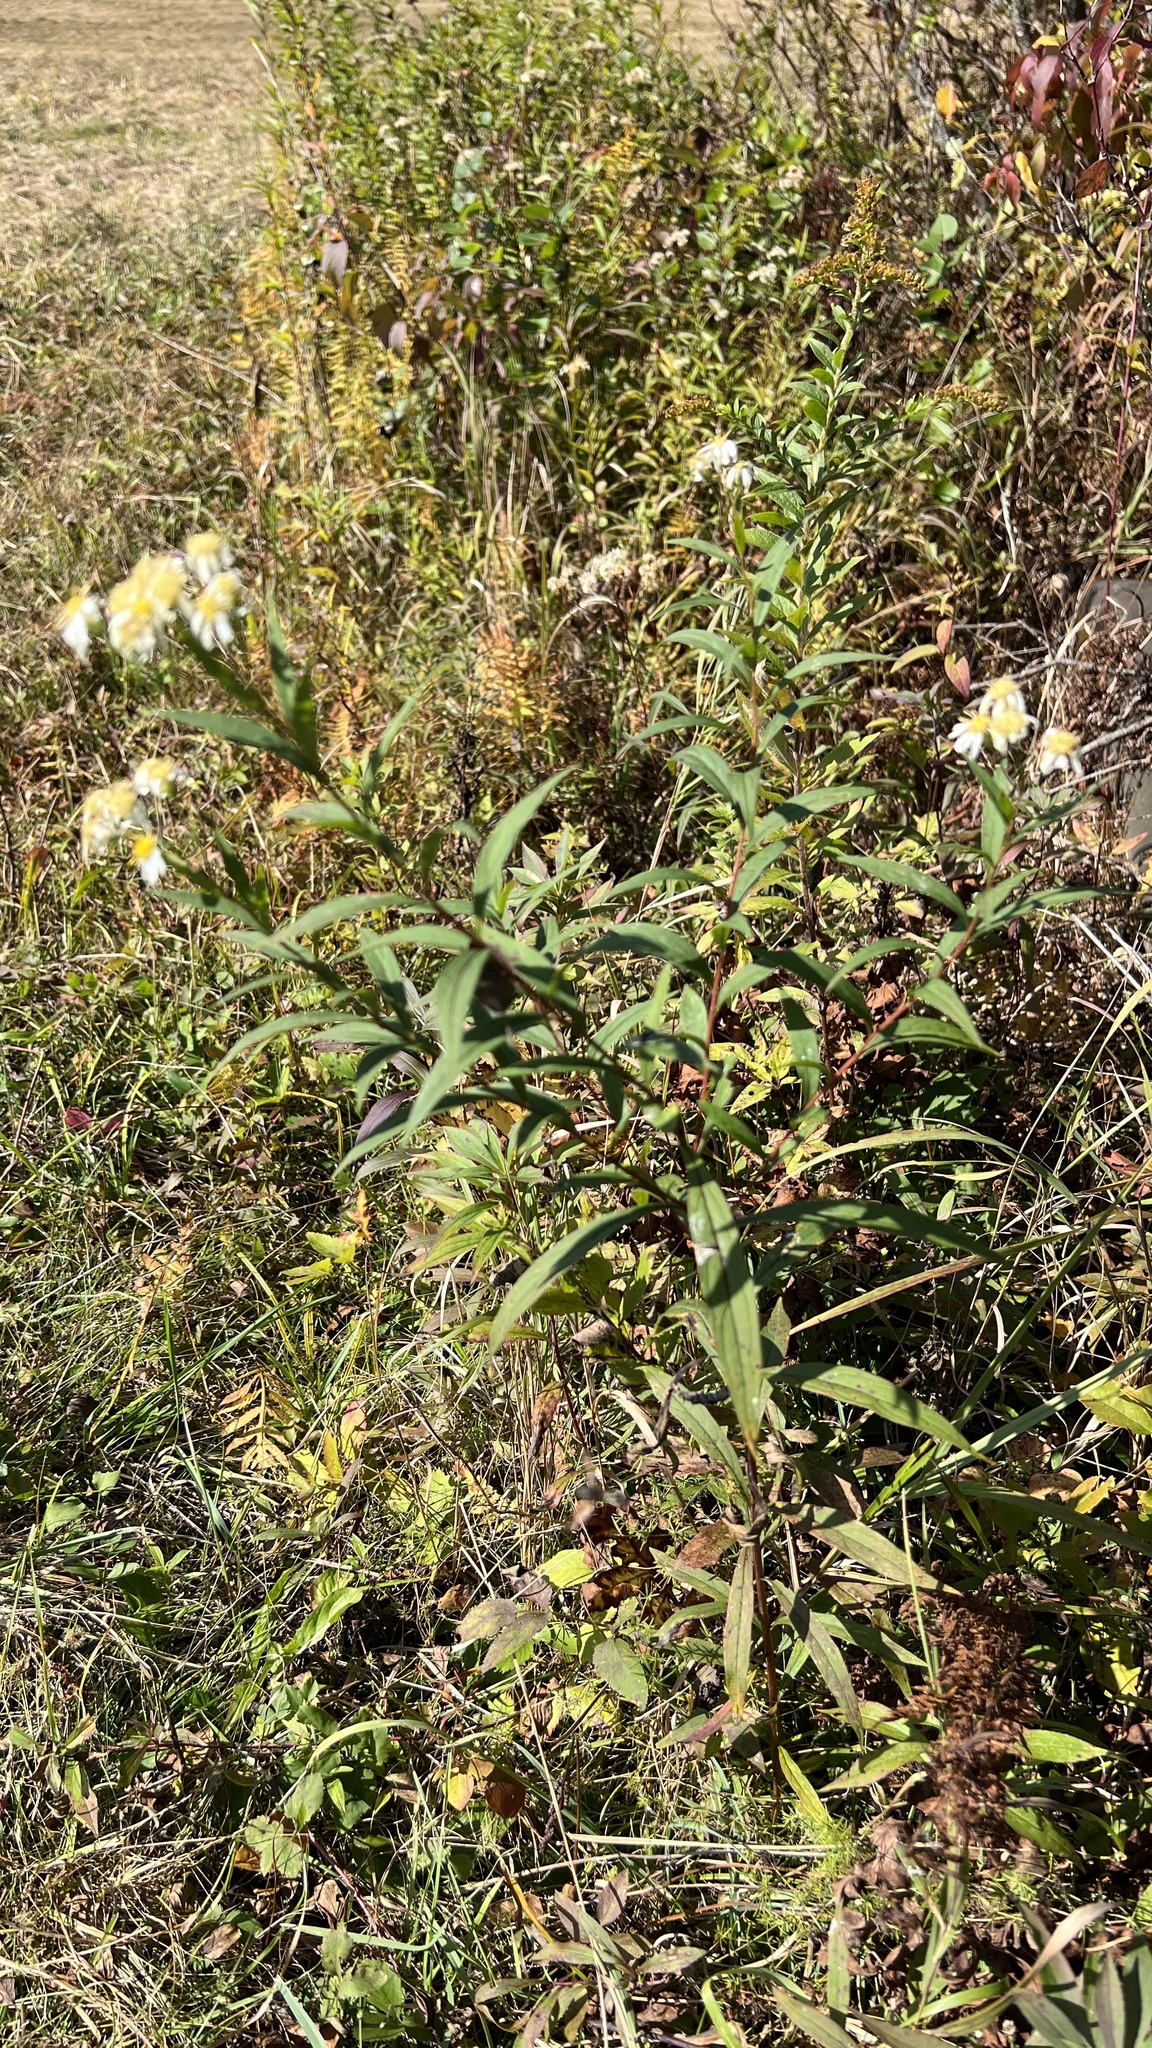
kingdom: Plantae
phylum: Tracheophyta
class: Magnoliopsida
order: Asterales
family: Asteraceae
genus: Doellingeria
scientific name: Doellingeria umbellata
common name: Flat-top white aster
